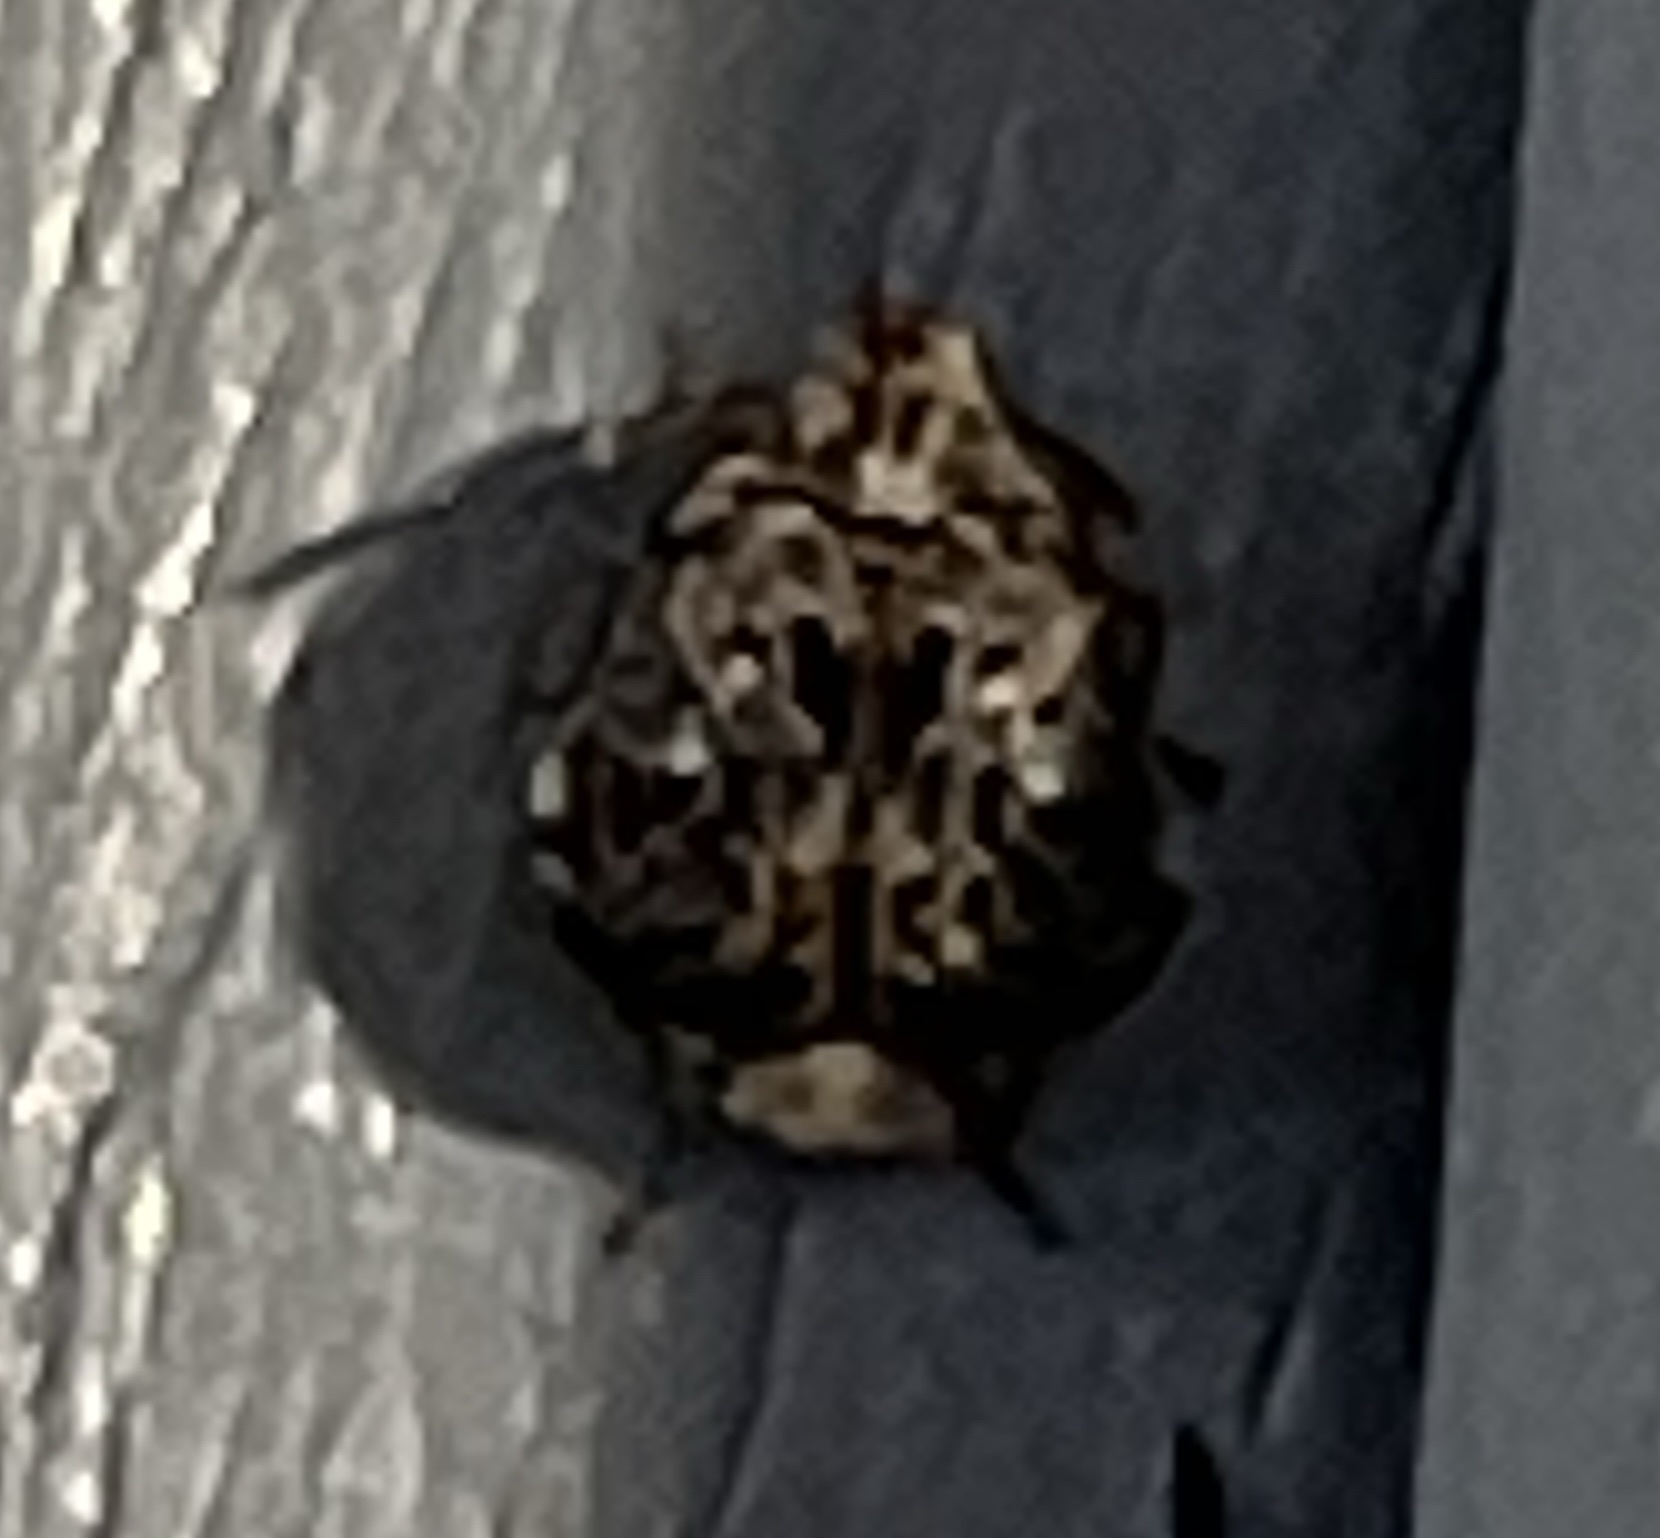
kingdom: Animalia
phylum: Arthropoda
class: Insecta
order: Coleoptera
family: Chrysomelidae
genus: Gibbobruchus
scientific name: Gibbobruchus mimus
